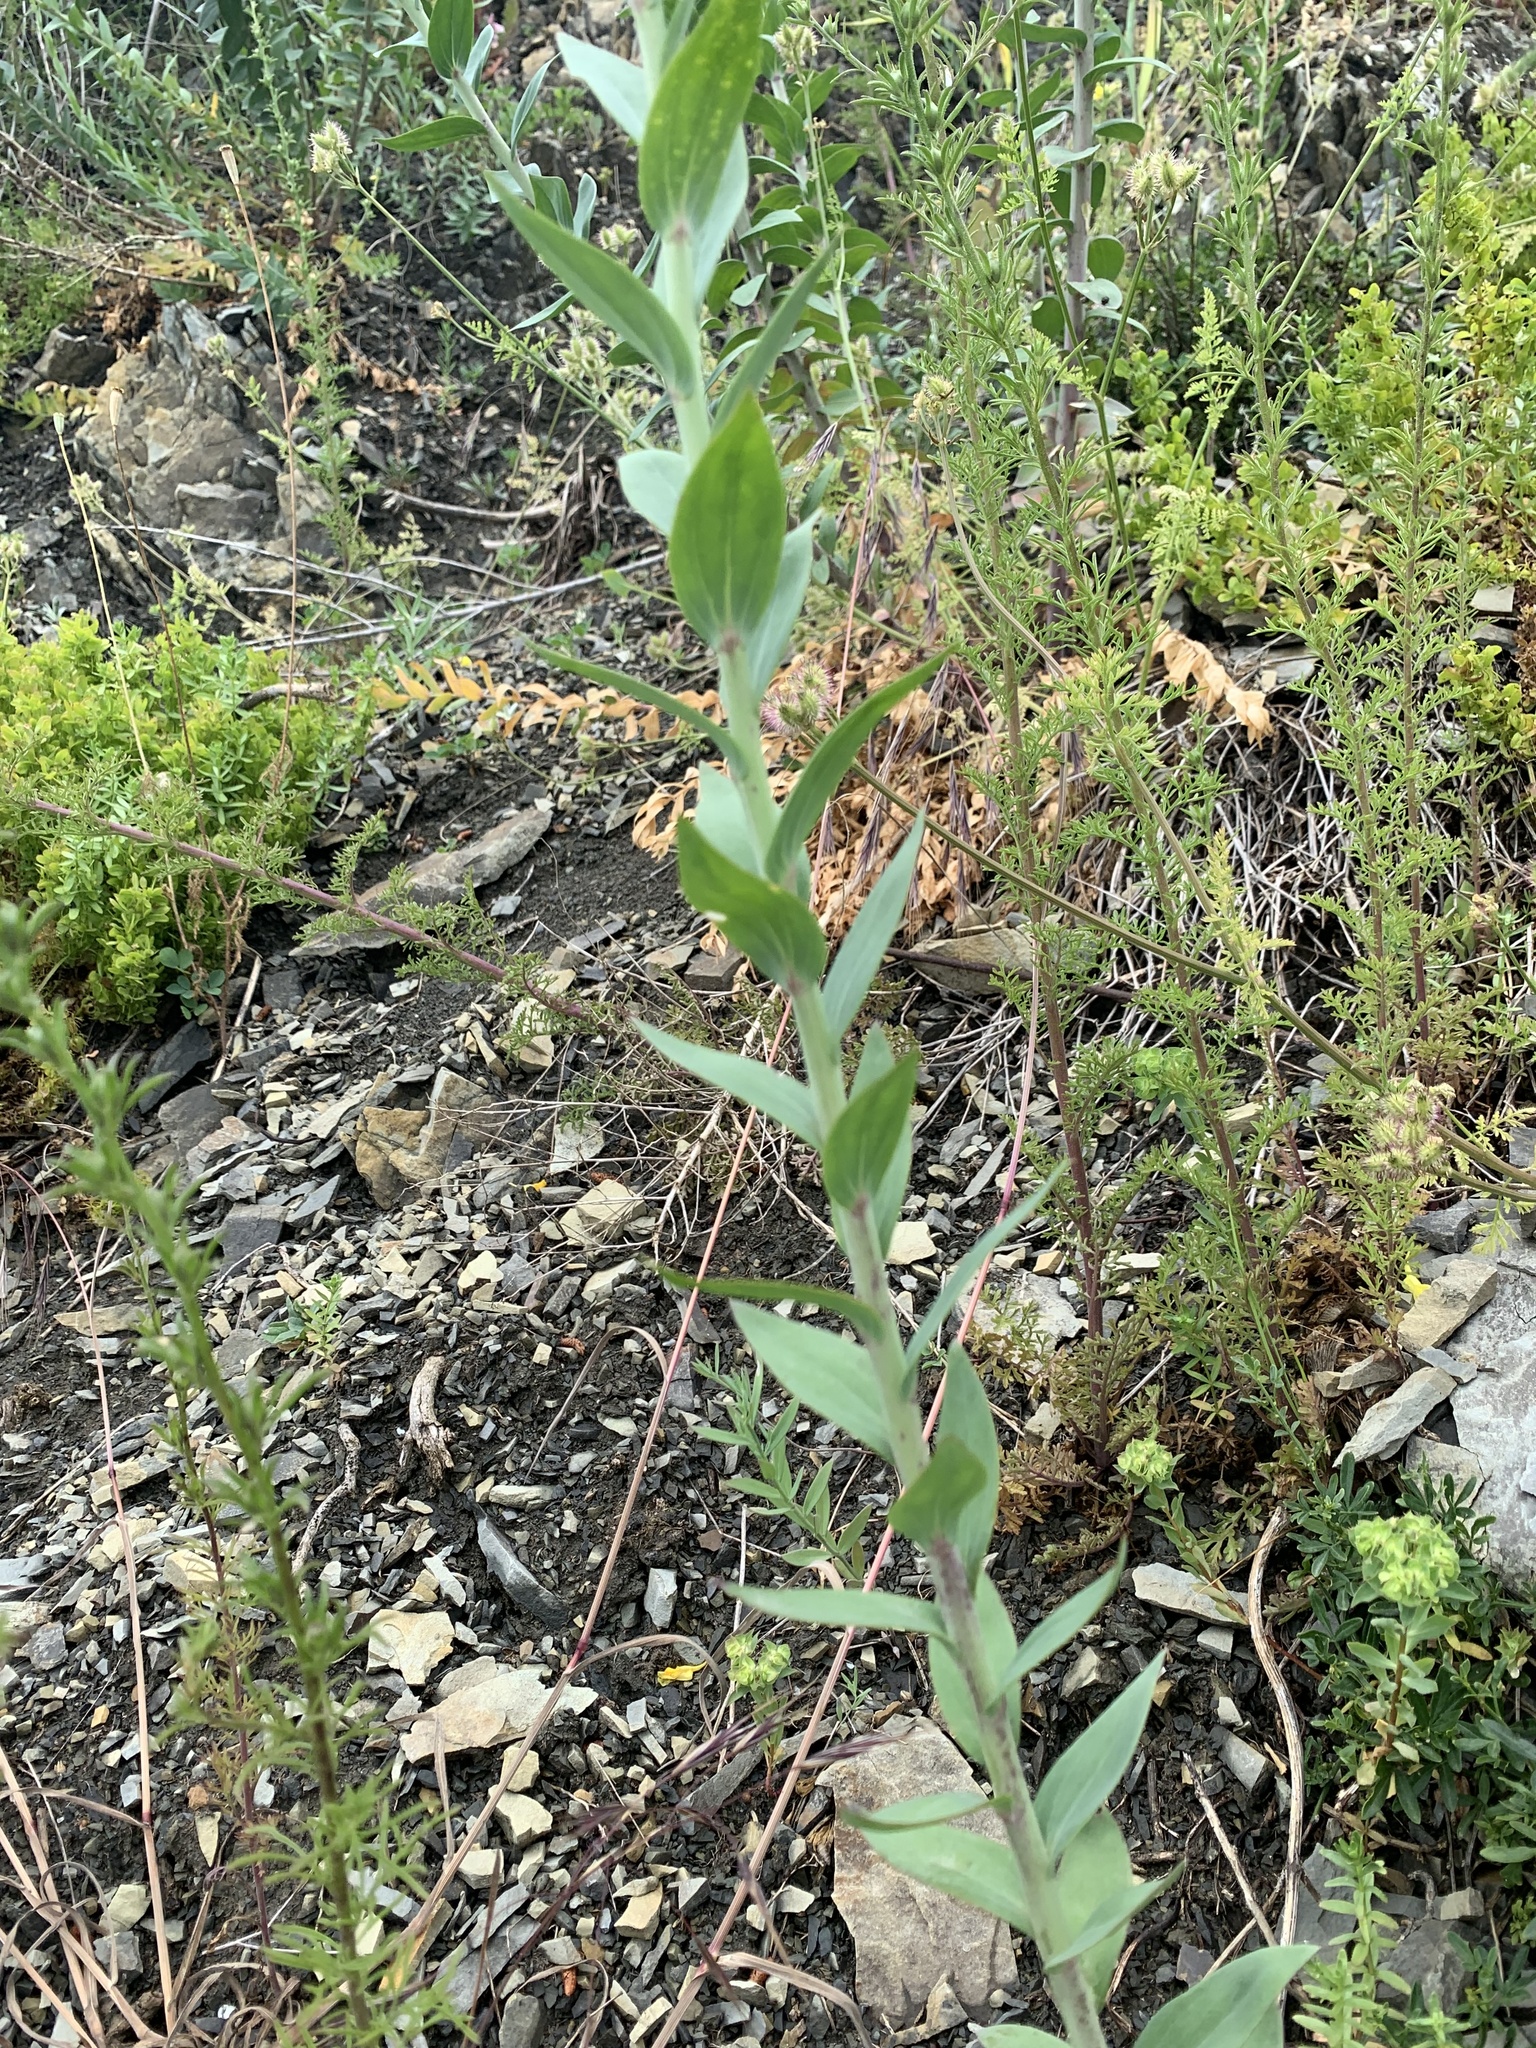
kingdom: Plantae
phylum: Tracheophyta
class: Magnoliopsida
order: Lamiales
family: Plantaginaceae
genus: Linaria
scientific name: Linaria genistifolia
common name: Broomleaf toadflax
